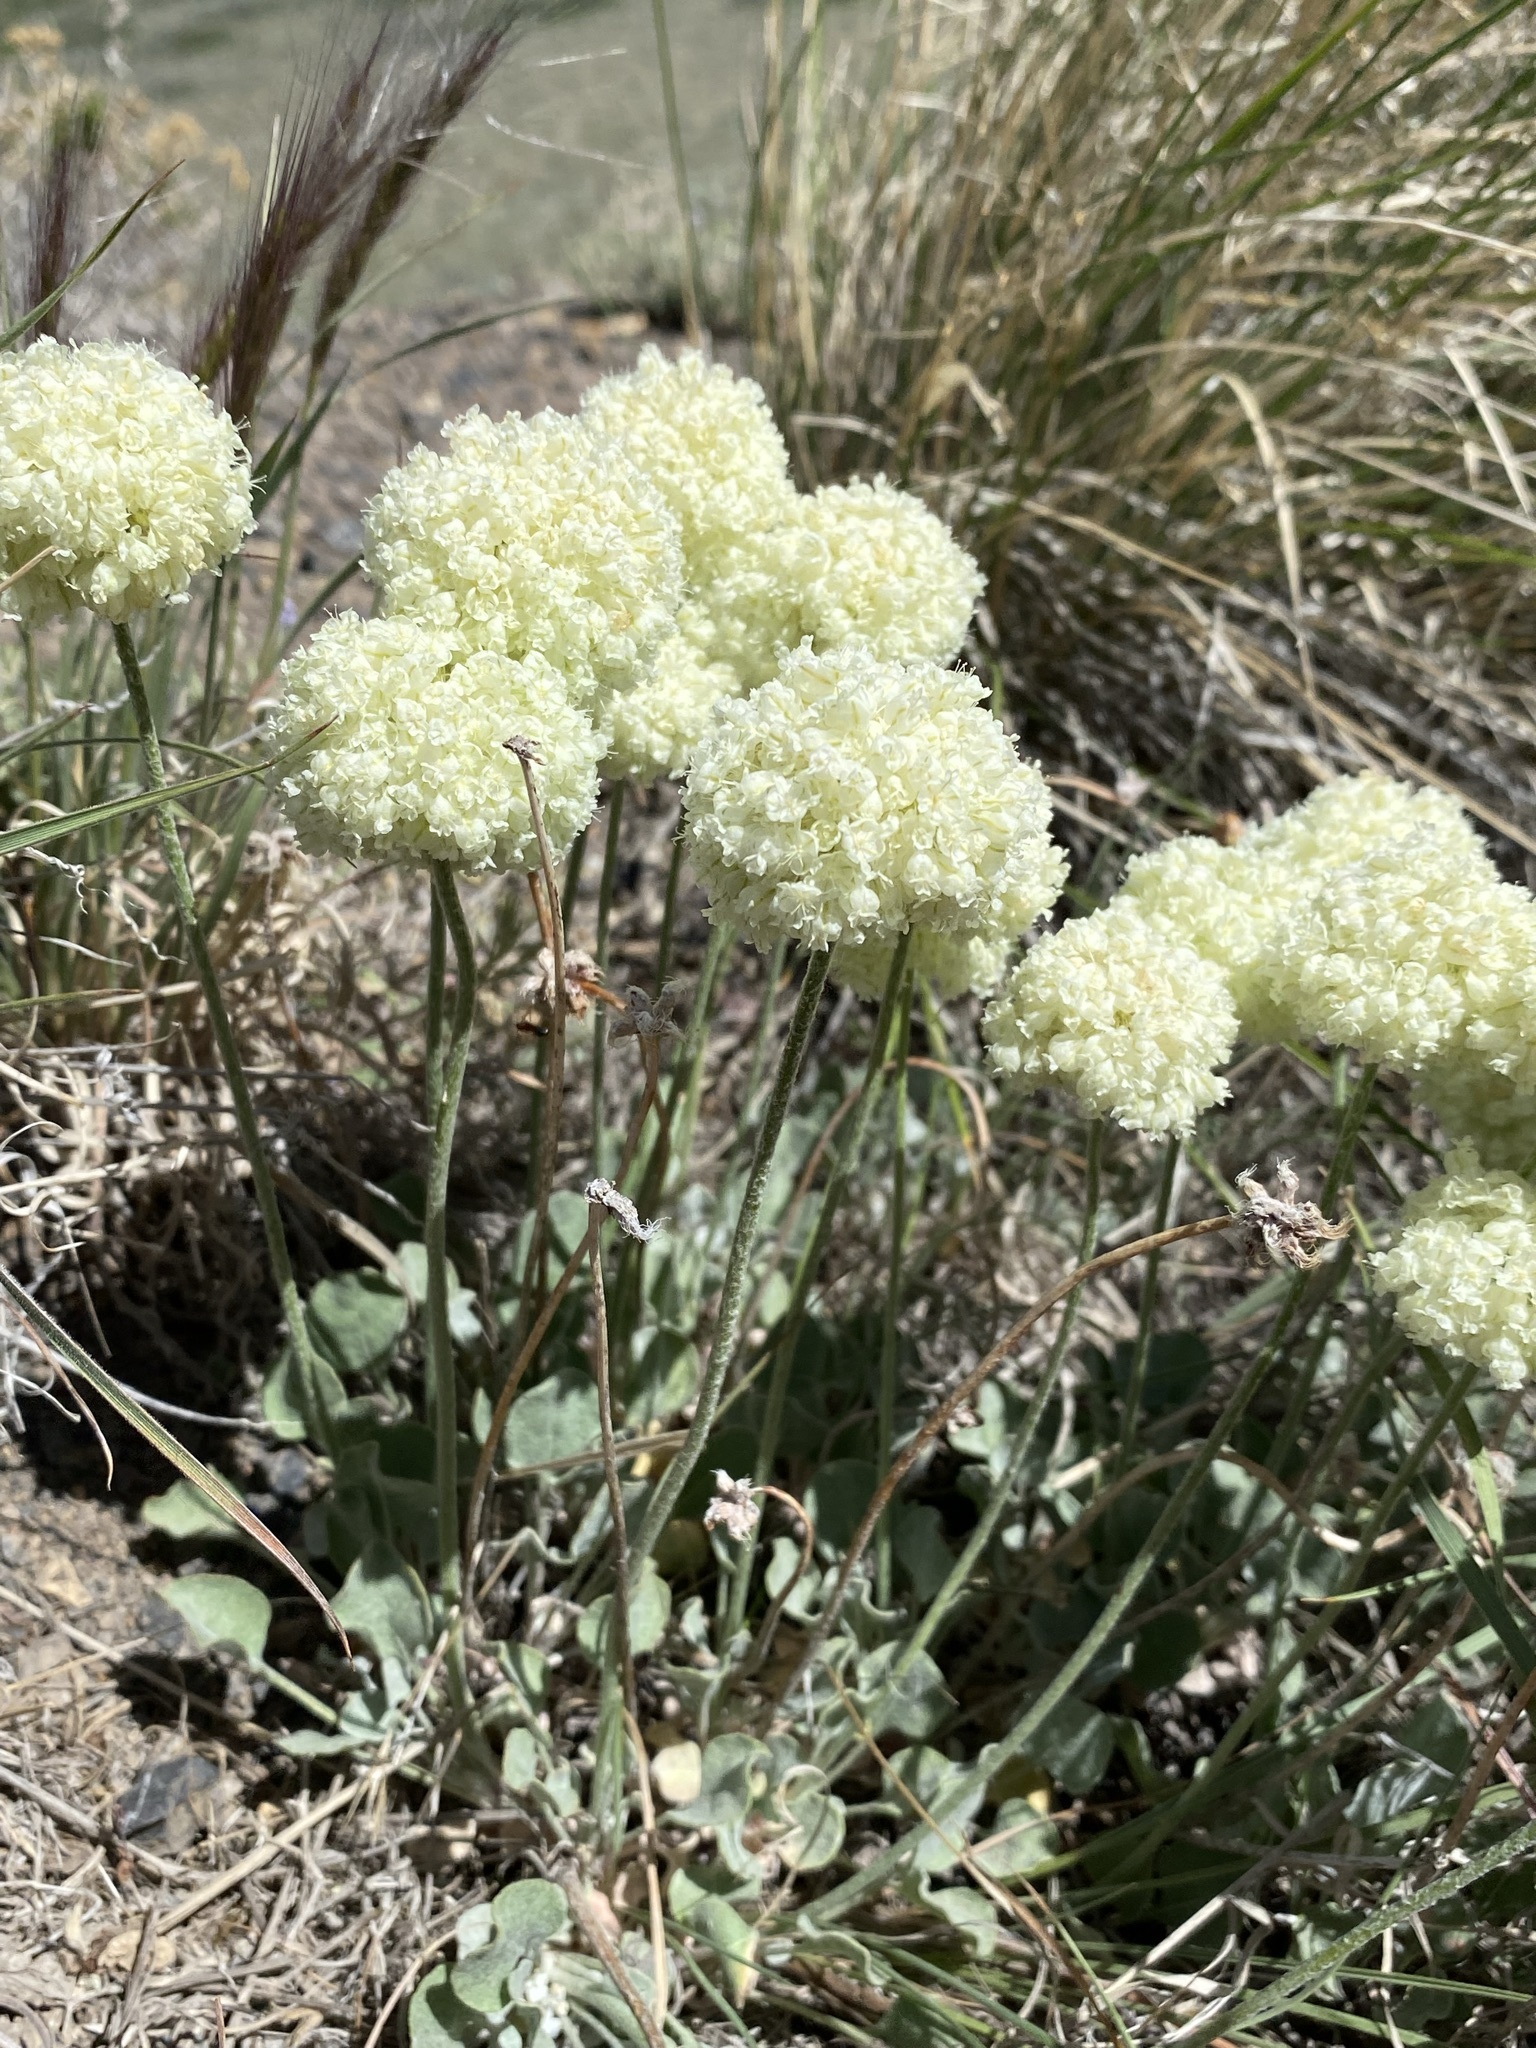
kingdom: Plantae
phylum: Tracheophyta
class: Magnoliopsida
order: Caryophyllales
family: Polygonaceae
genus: Eriogonum
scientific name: Eriogonum ovalifolium
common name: Cushion buckwheat
